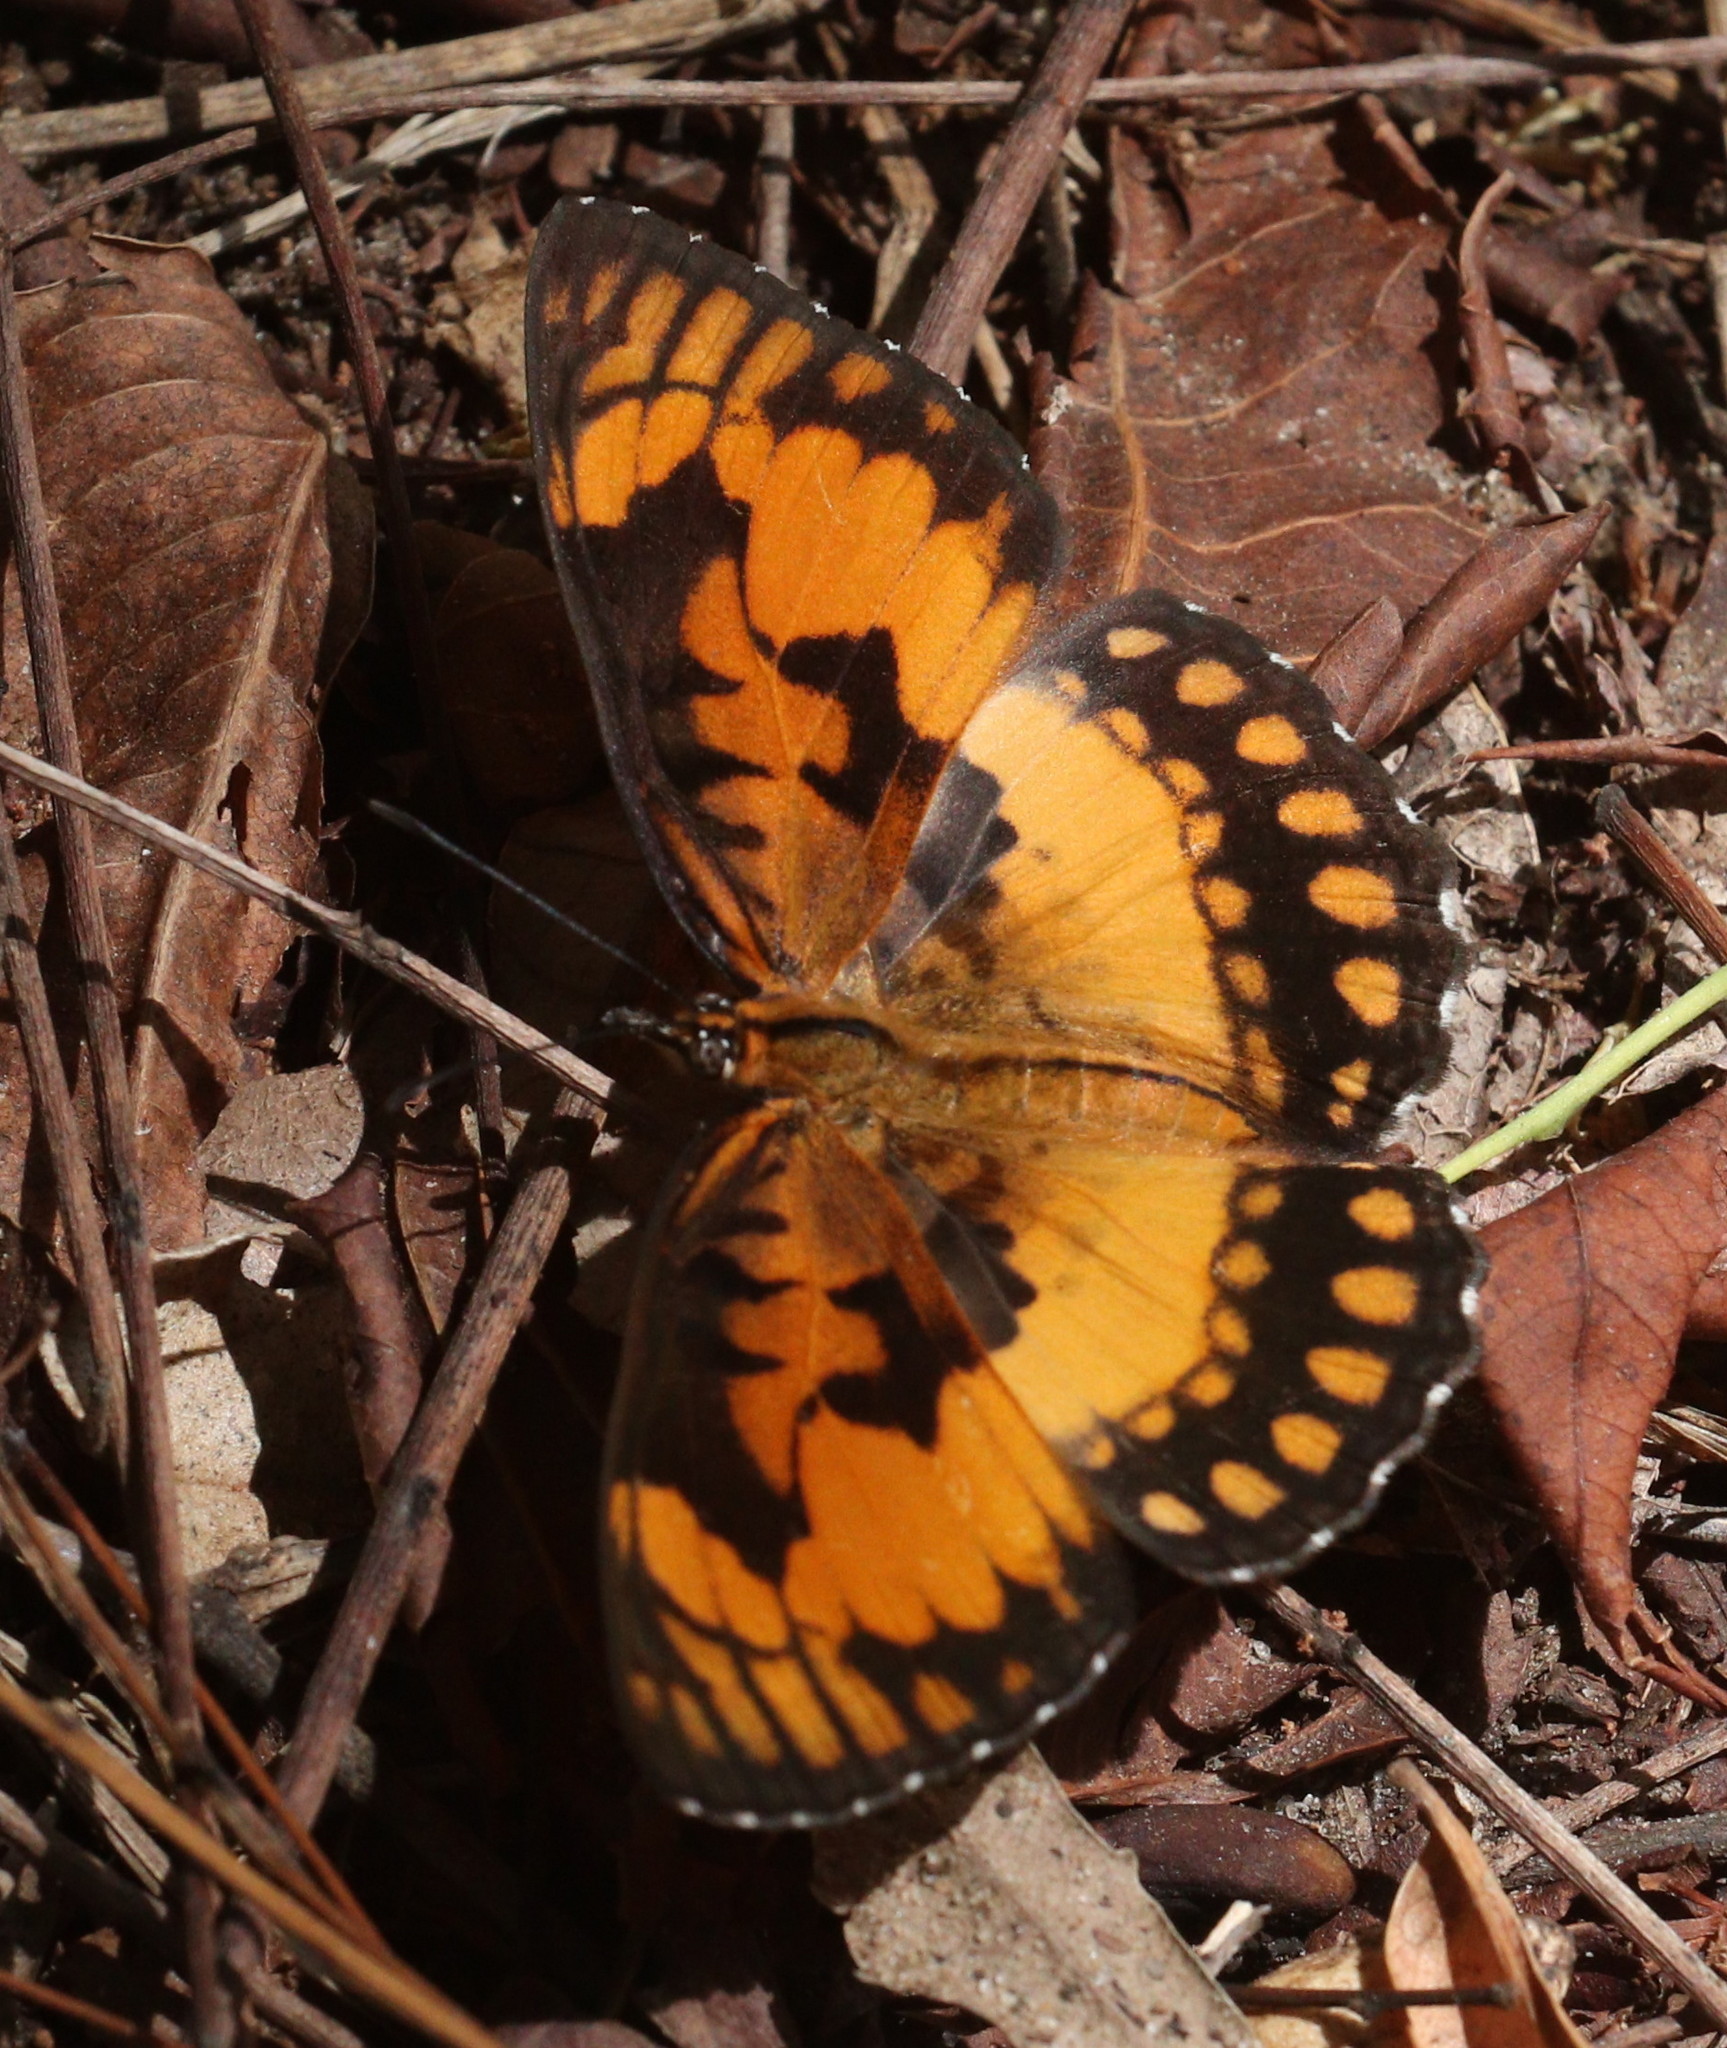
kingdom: Animalia
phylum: Arthropoda
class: Insecta
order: Lepidoptera
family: Nymphalidae
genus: Byblia
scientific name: Byblia acheloia
